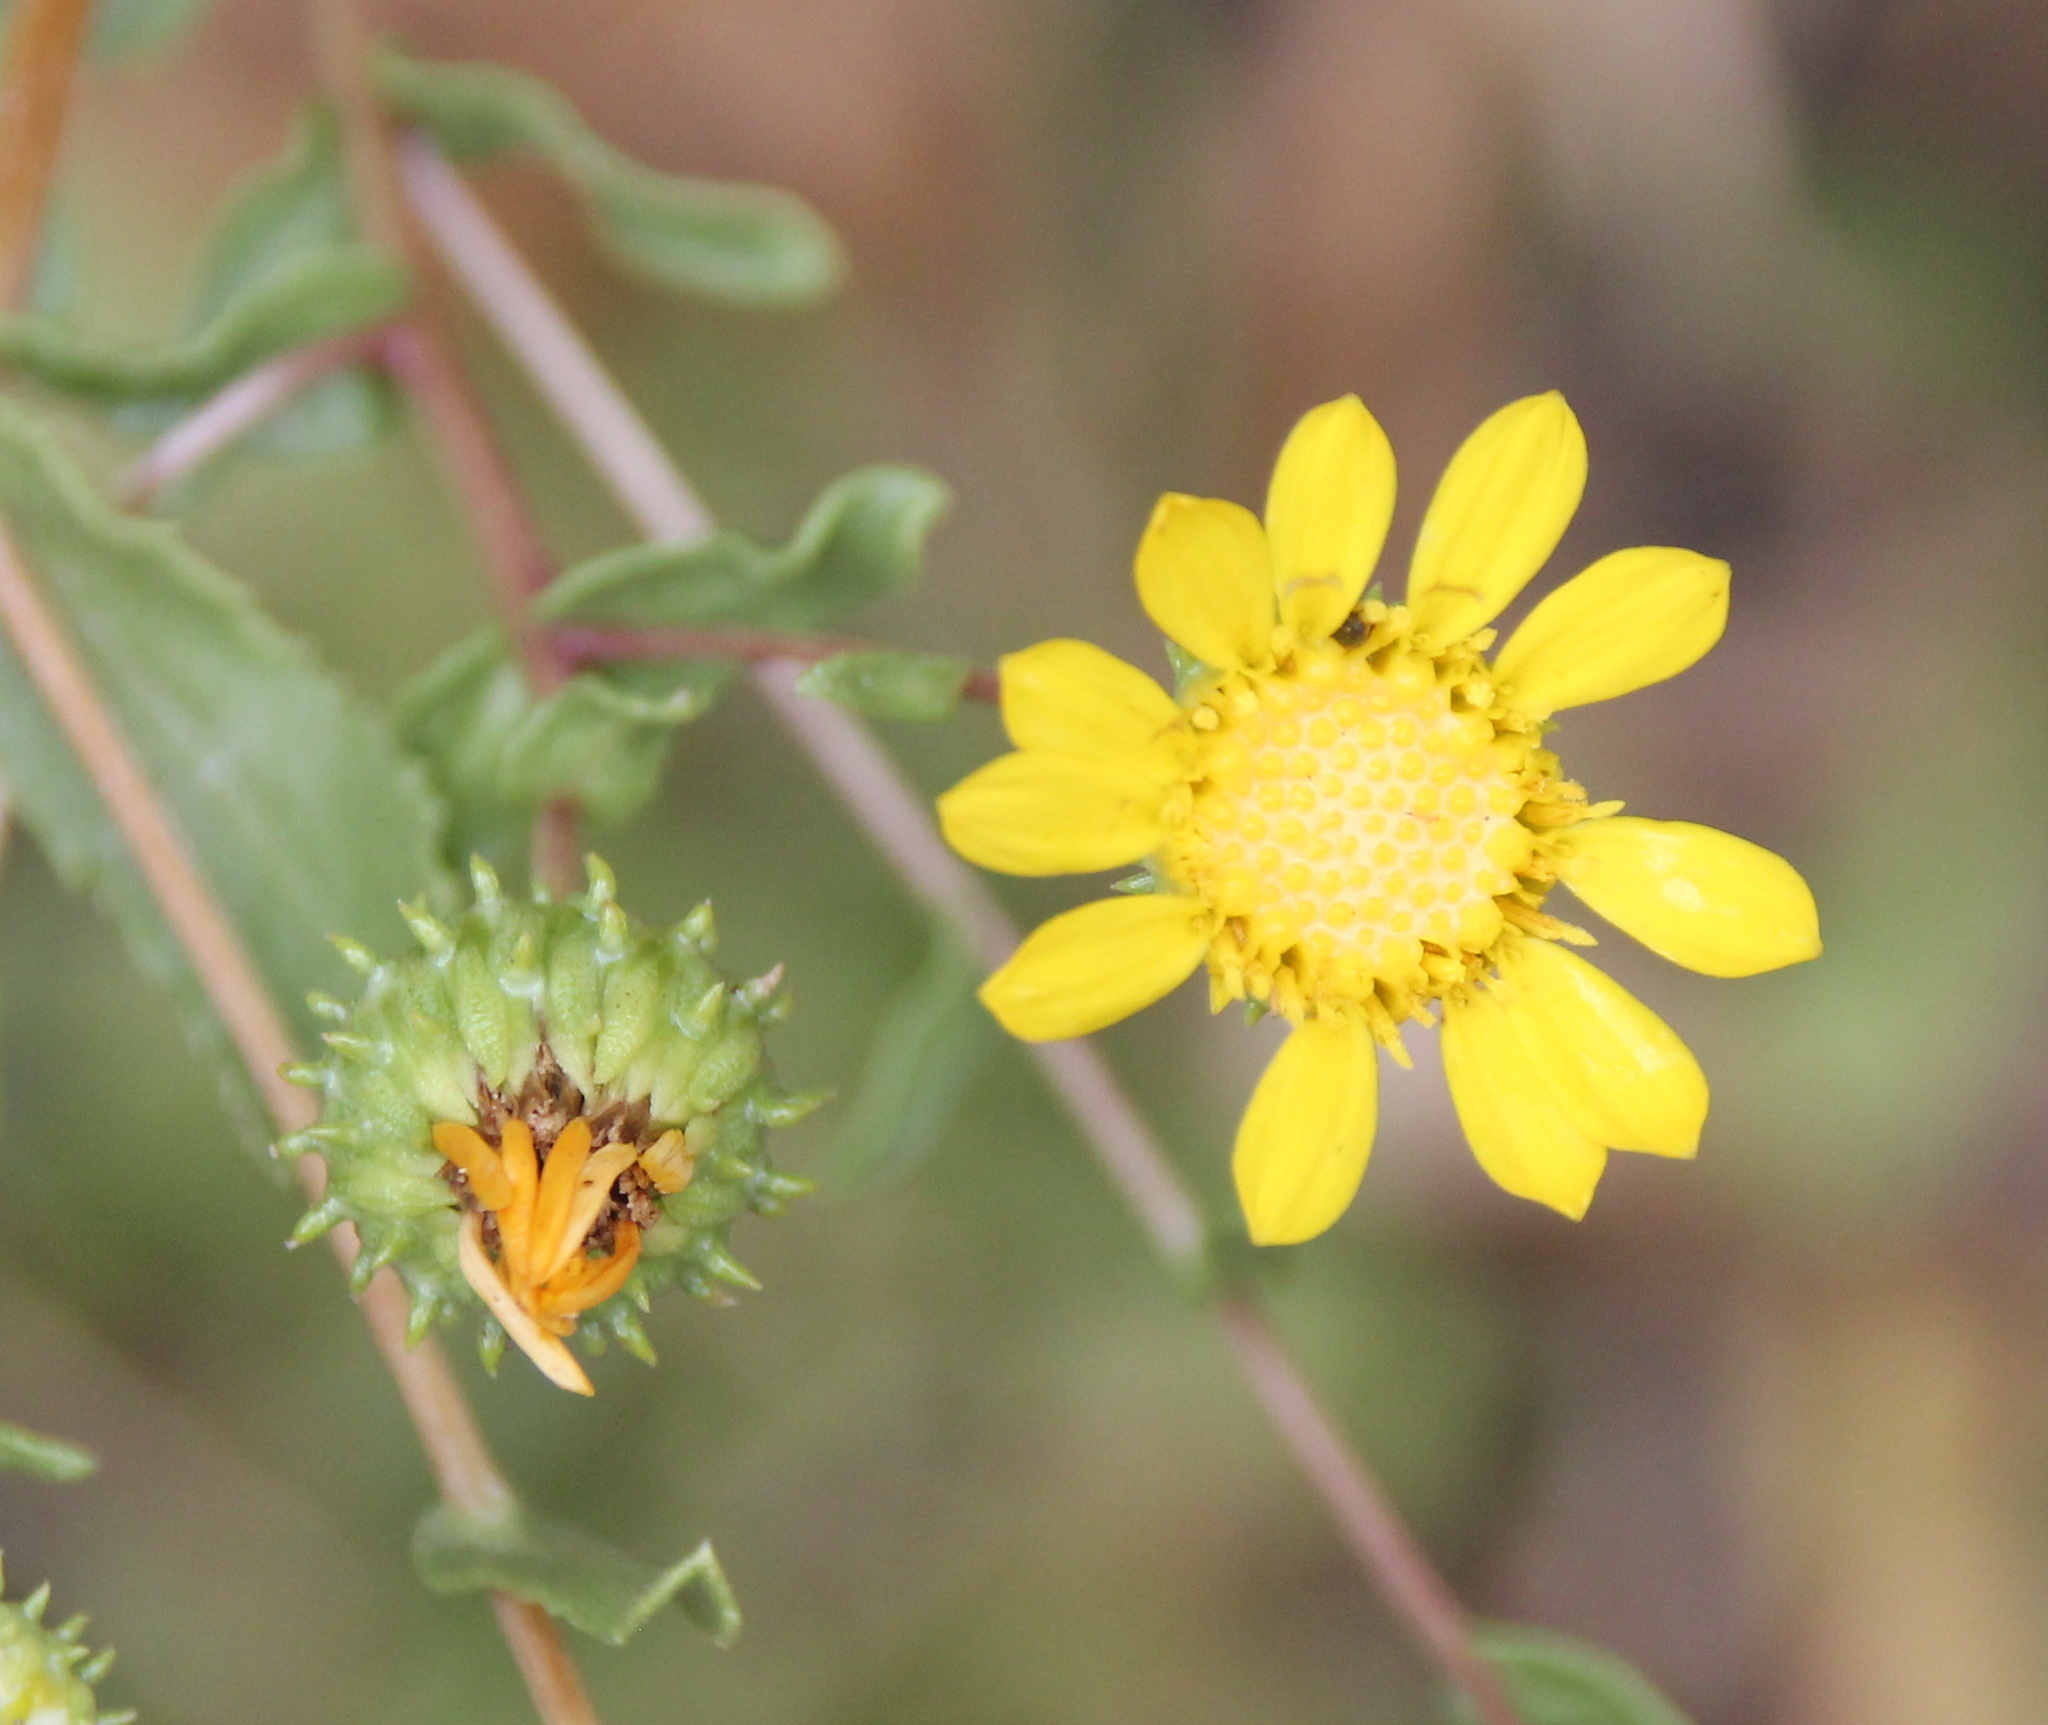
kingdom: Plantae
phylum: Tracheophyta
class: Magnoliopsida
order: Asterales
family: Asteraceae
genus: Grindelia
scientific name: Grindelia hirsutula
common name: Hairy gumweed
